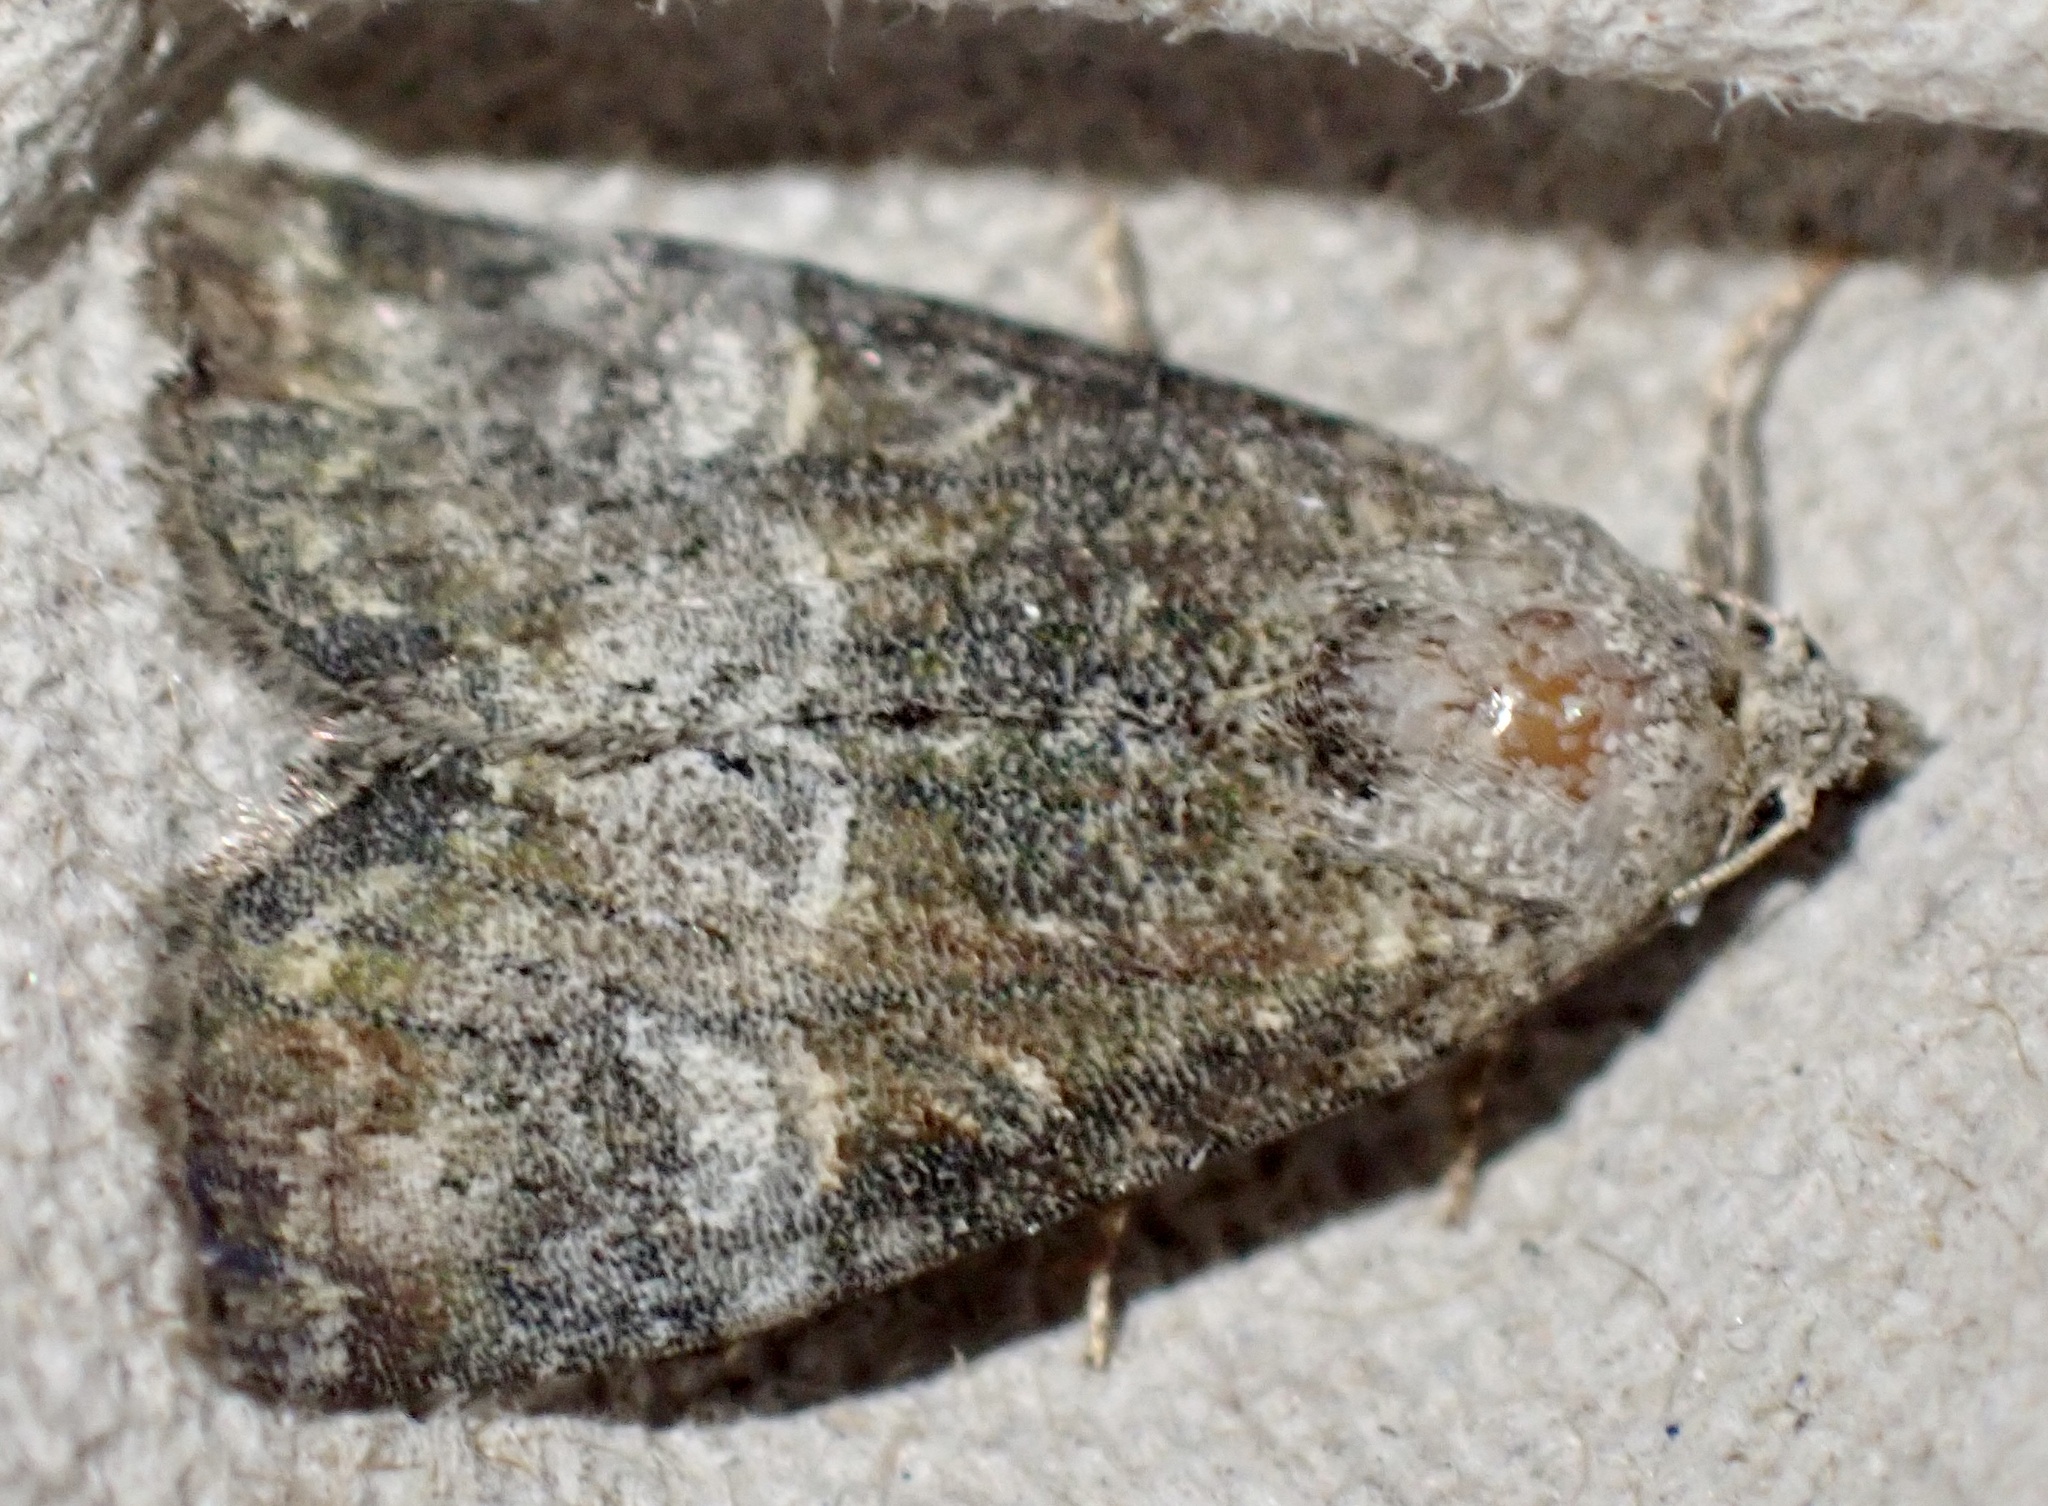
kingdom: Animalia
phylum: Arthropoda
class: Insecta
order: Lepidoptera
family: Noctuidae
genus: Mesoligia
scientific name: Mesoligia furuncula
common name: Cloaked minor
